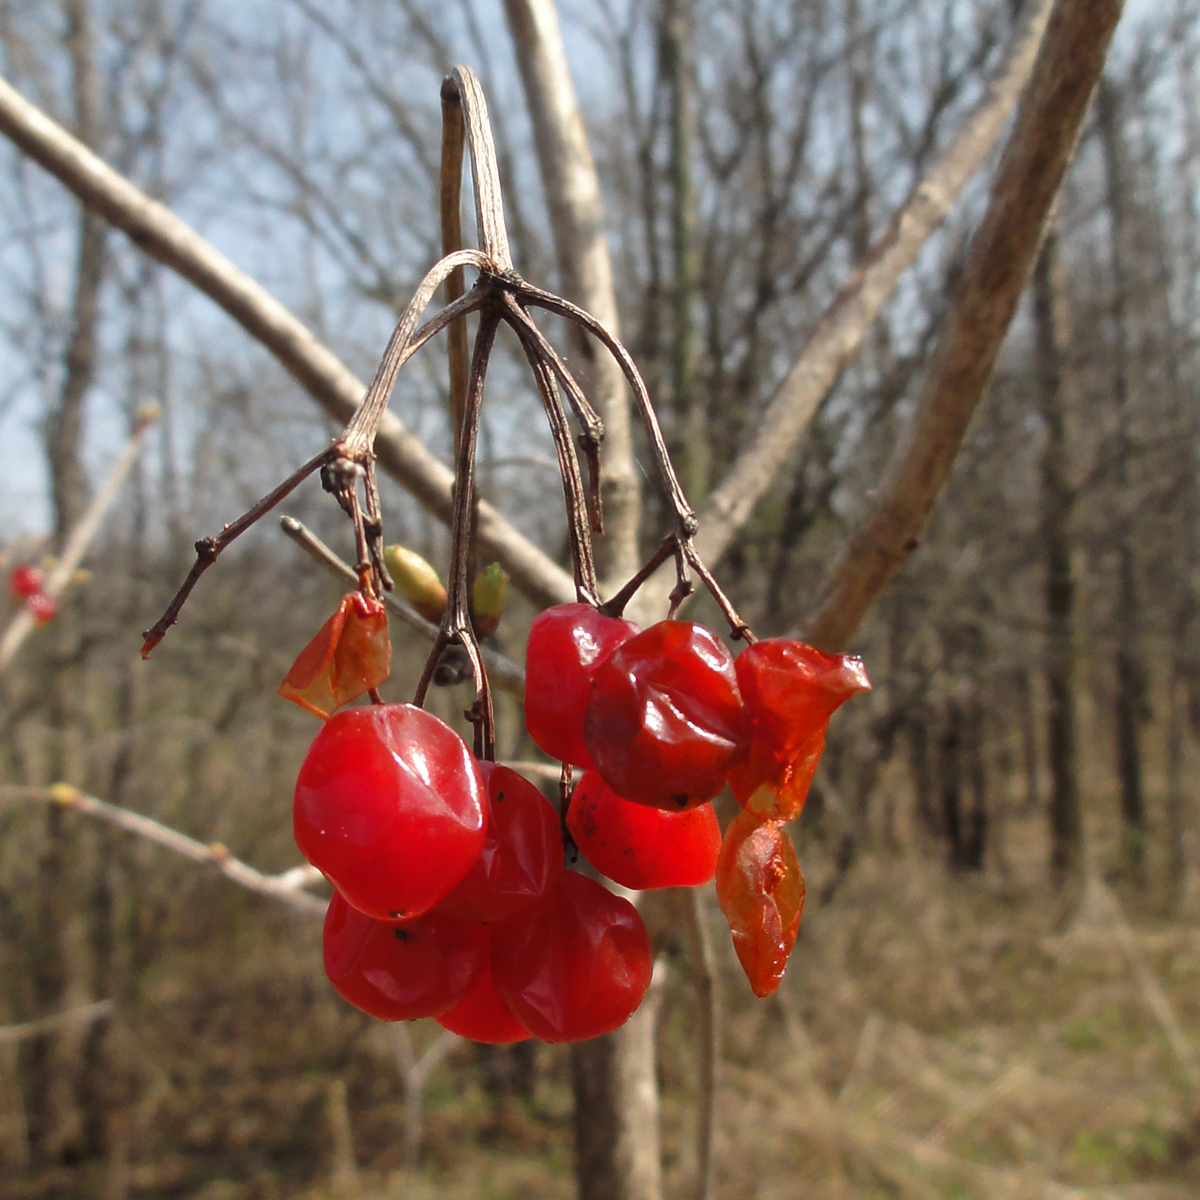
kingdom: Plantae
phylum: Tracheophyta
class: Magnoliopsida
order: Dipsacales
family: Viburnaceae
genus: Viburnum
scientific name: Viburnum opulus
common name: Guelder-rose
